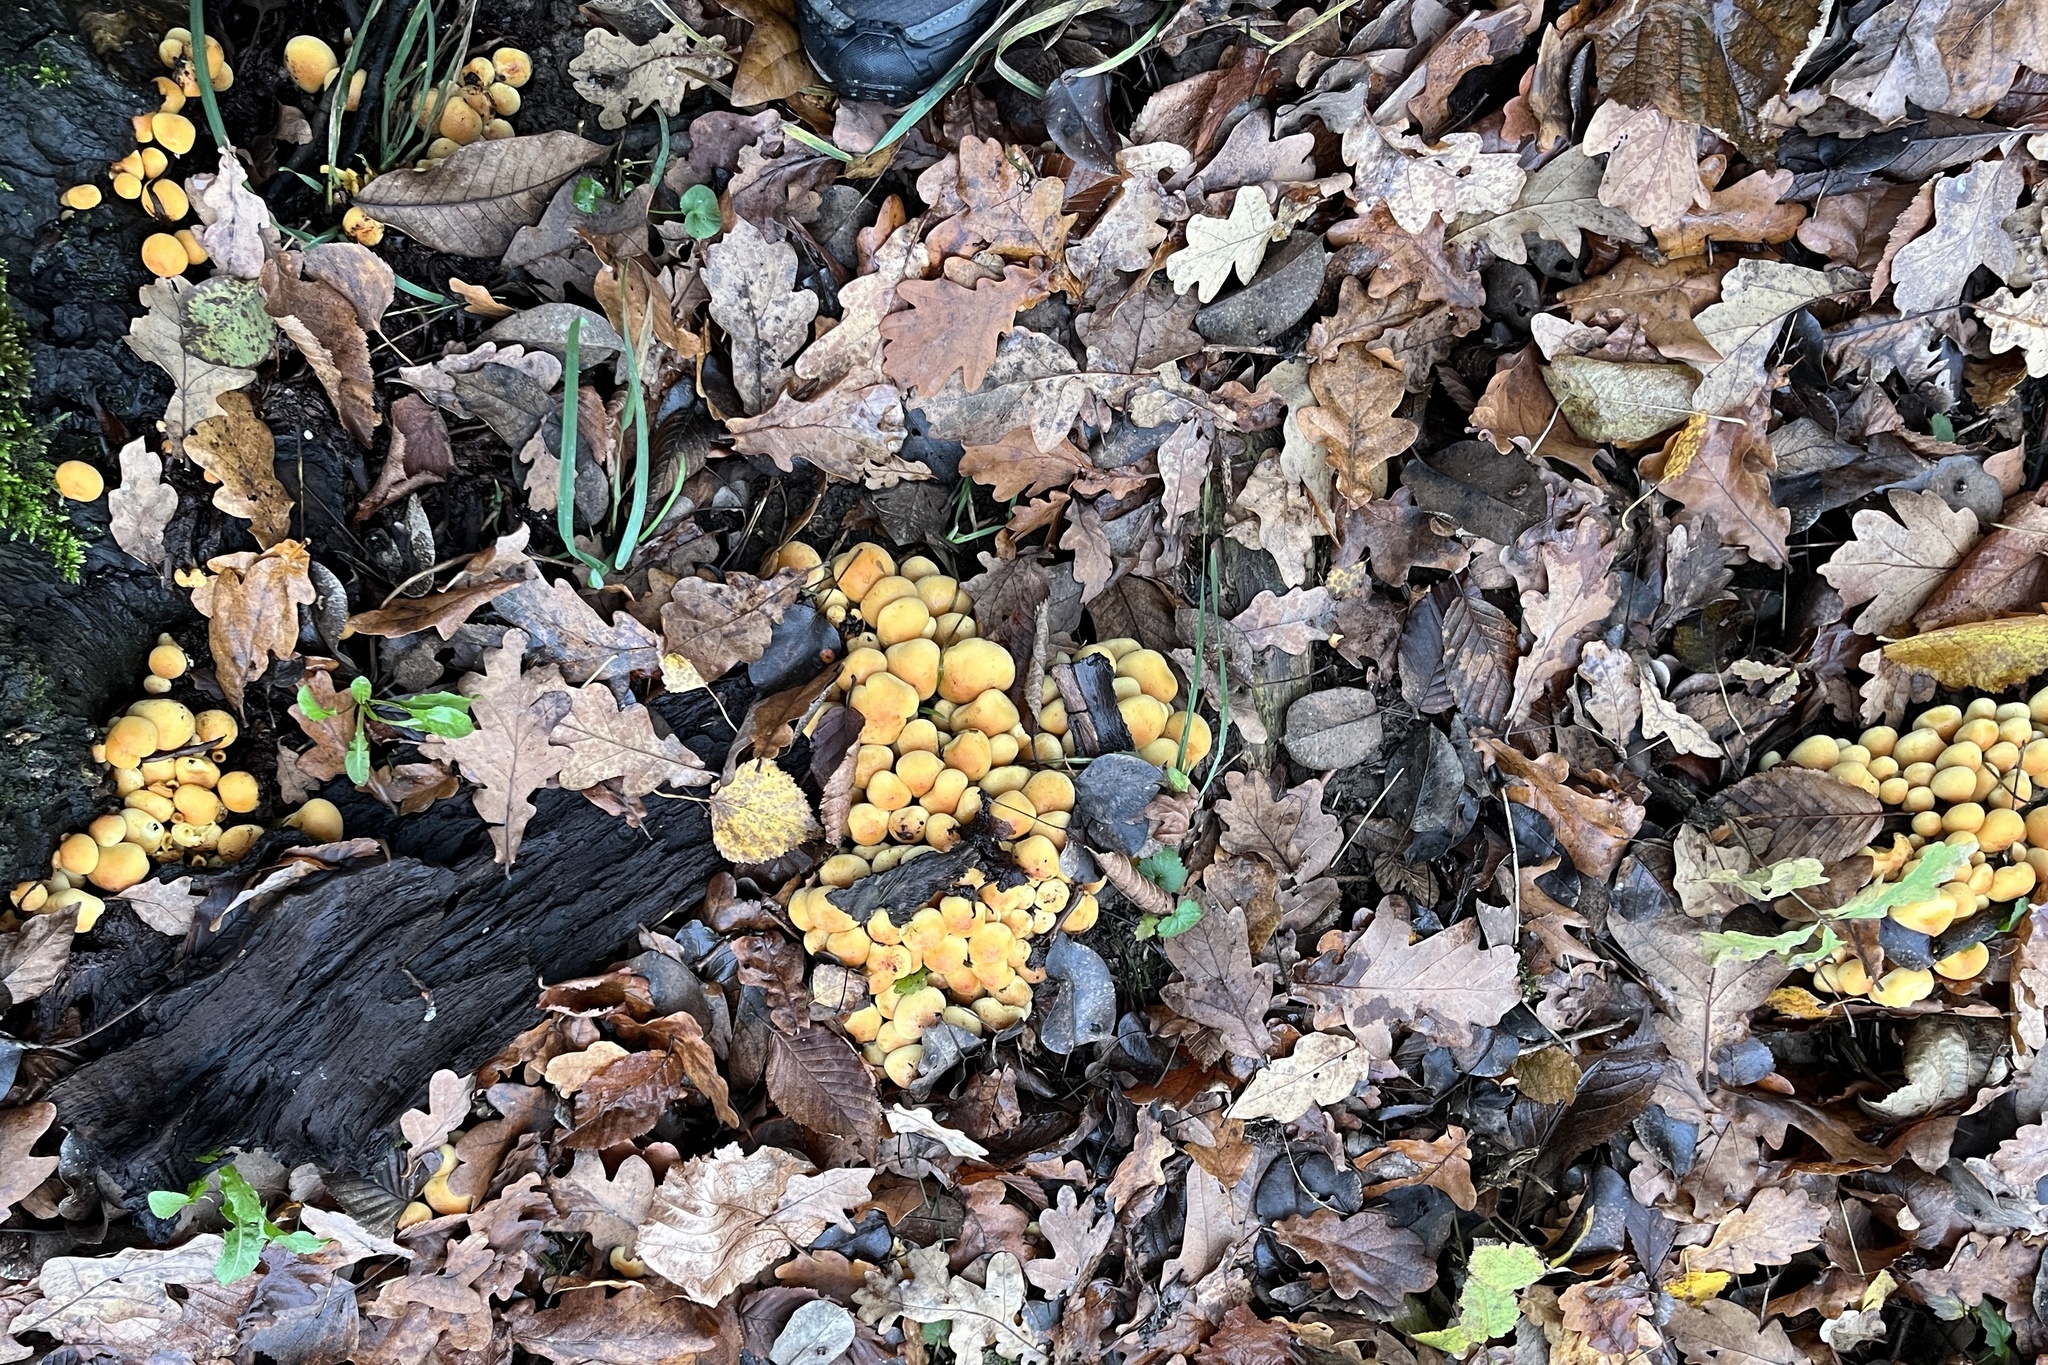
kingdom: Fungi
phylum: Basidiomycota
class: Agaricomycetes
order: Agaricales
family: Strophariaceae
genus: Hypholoma
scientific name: Hypholoma fasciculare
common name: Sulphur tuft
